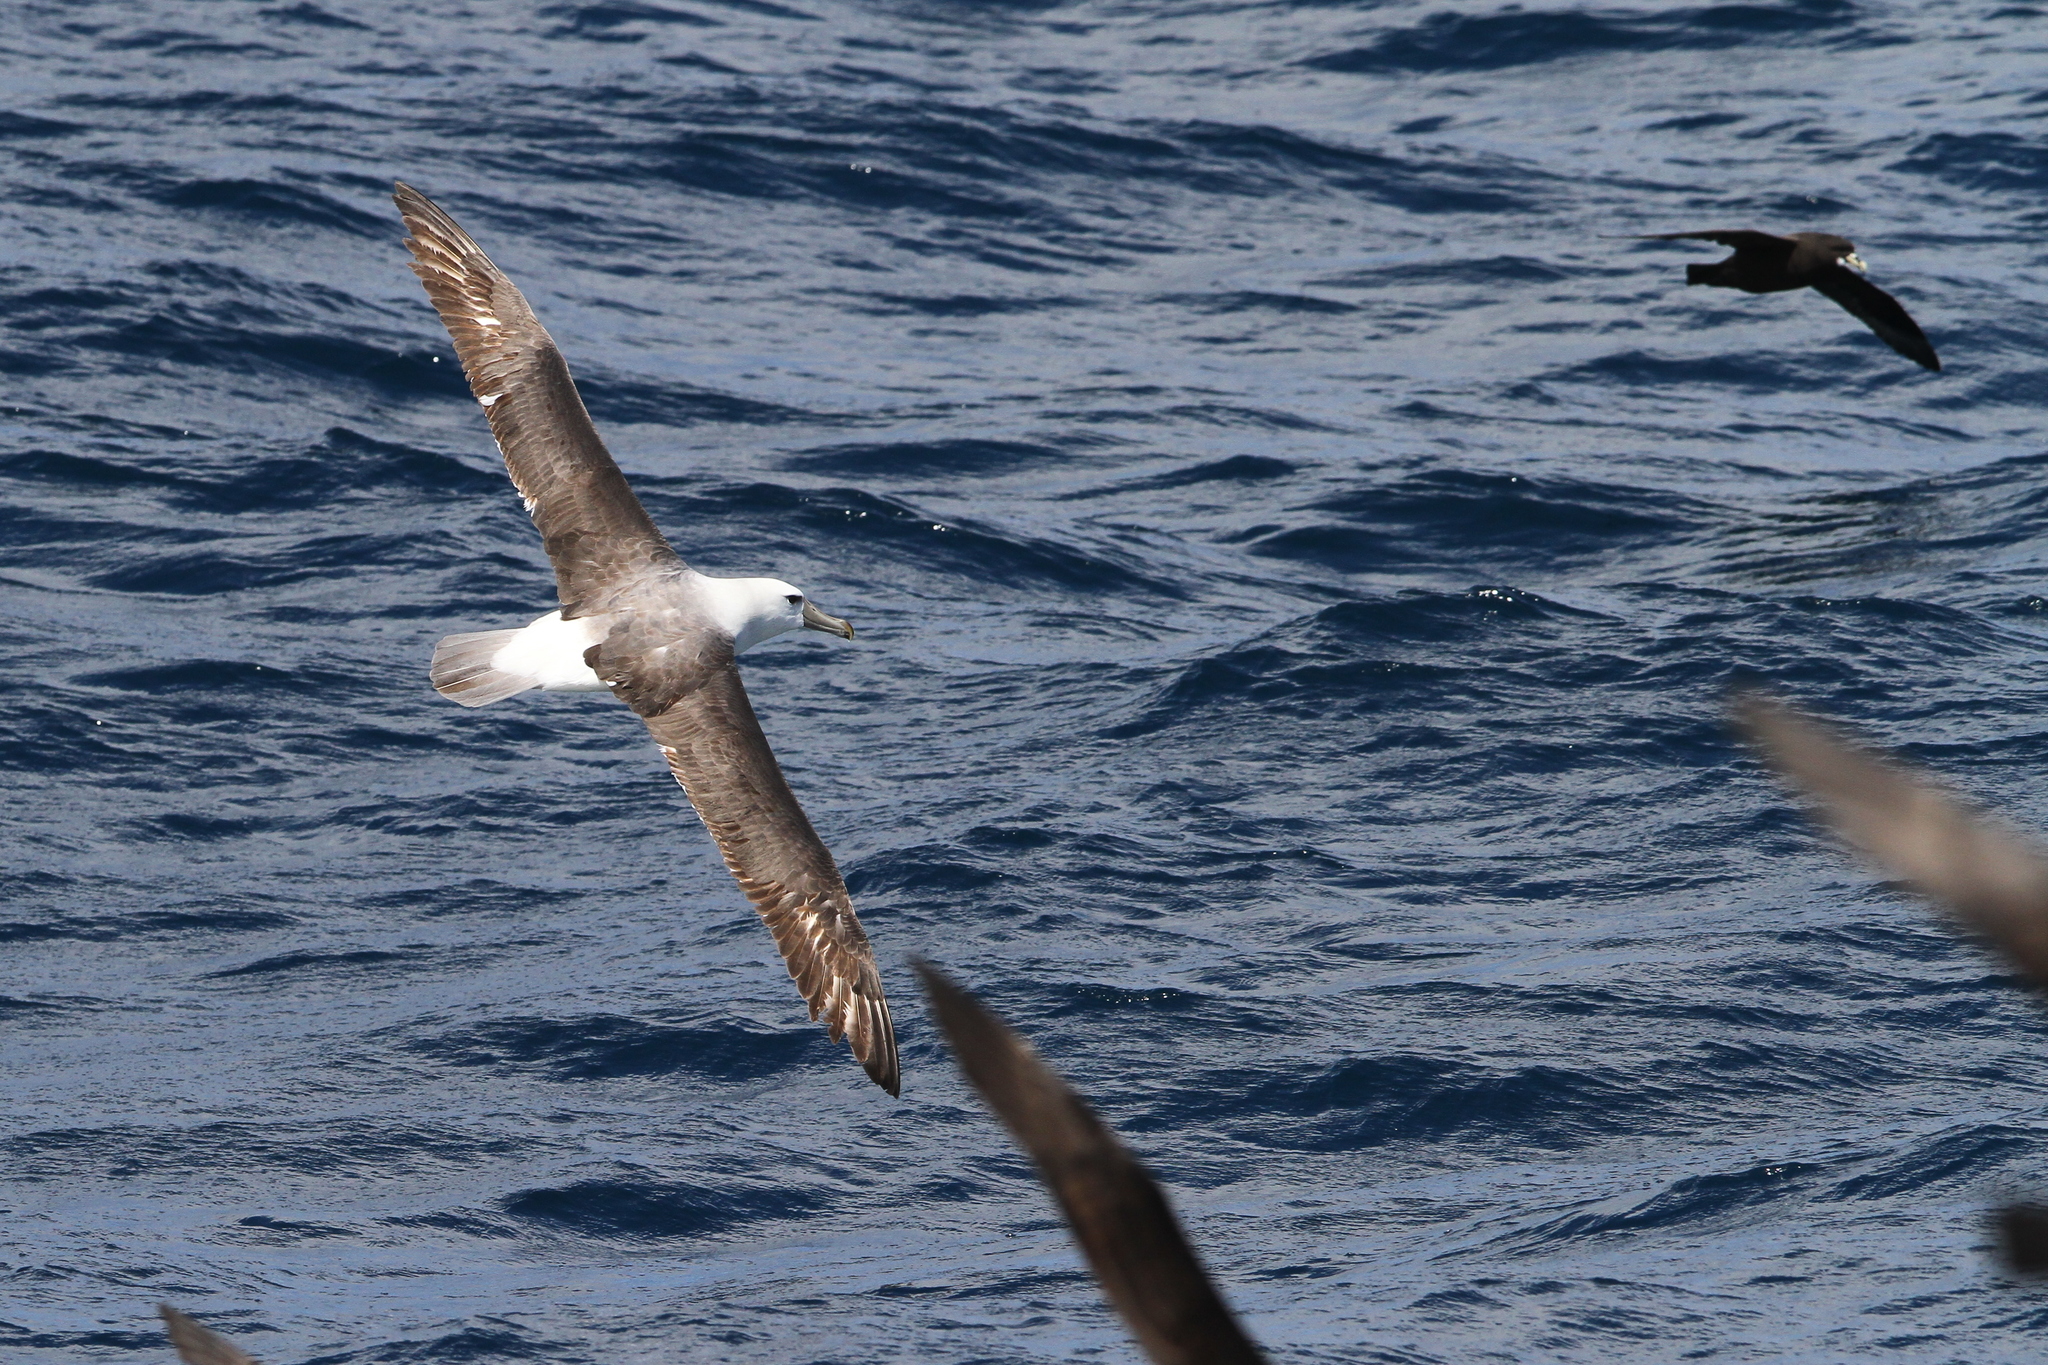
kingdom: Animalia
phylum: Chordata
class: Aves
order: Procellariiformes
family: Diomedeidae
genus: Thalassarche
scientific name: Thalassarche cauta
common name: Shy albatross
